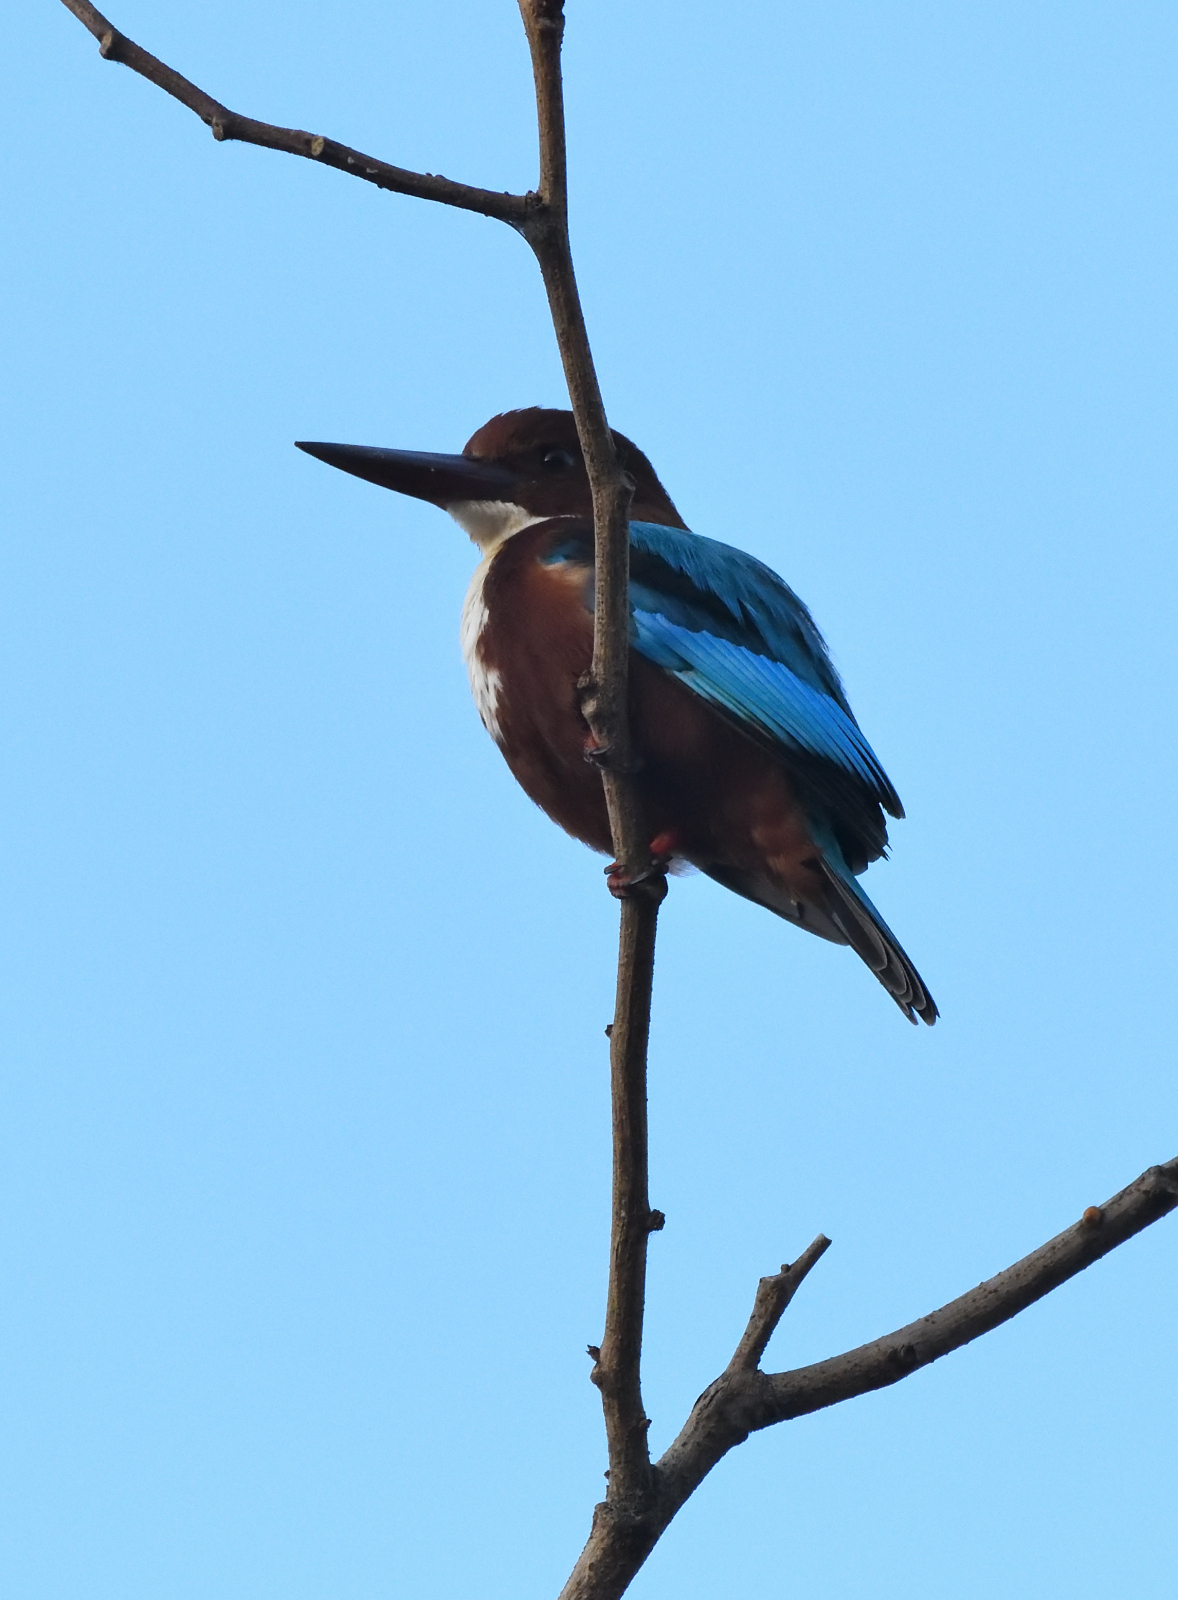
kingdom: Animalia
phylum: Chordata
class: Aves
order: Coraciiformes
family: Alcedinidae
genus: Halcyon
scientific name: Halcyon smyrnensis
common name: White-throated kingfisher
